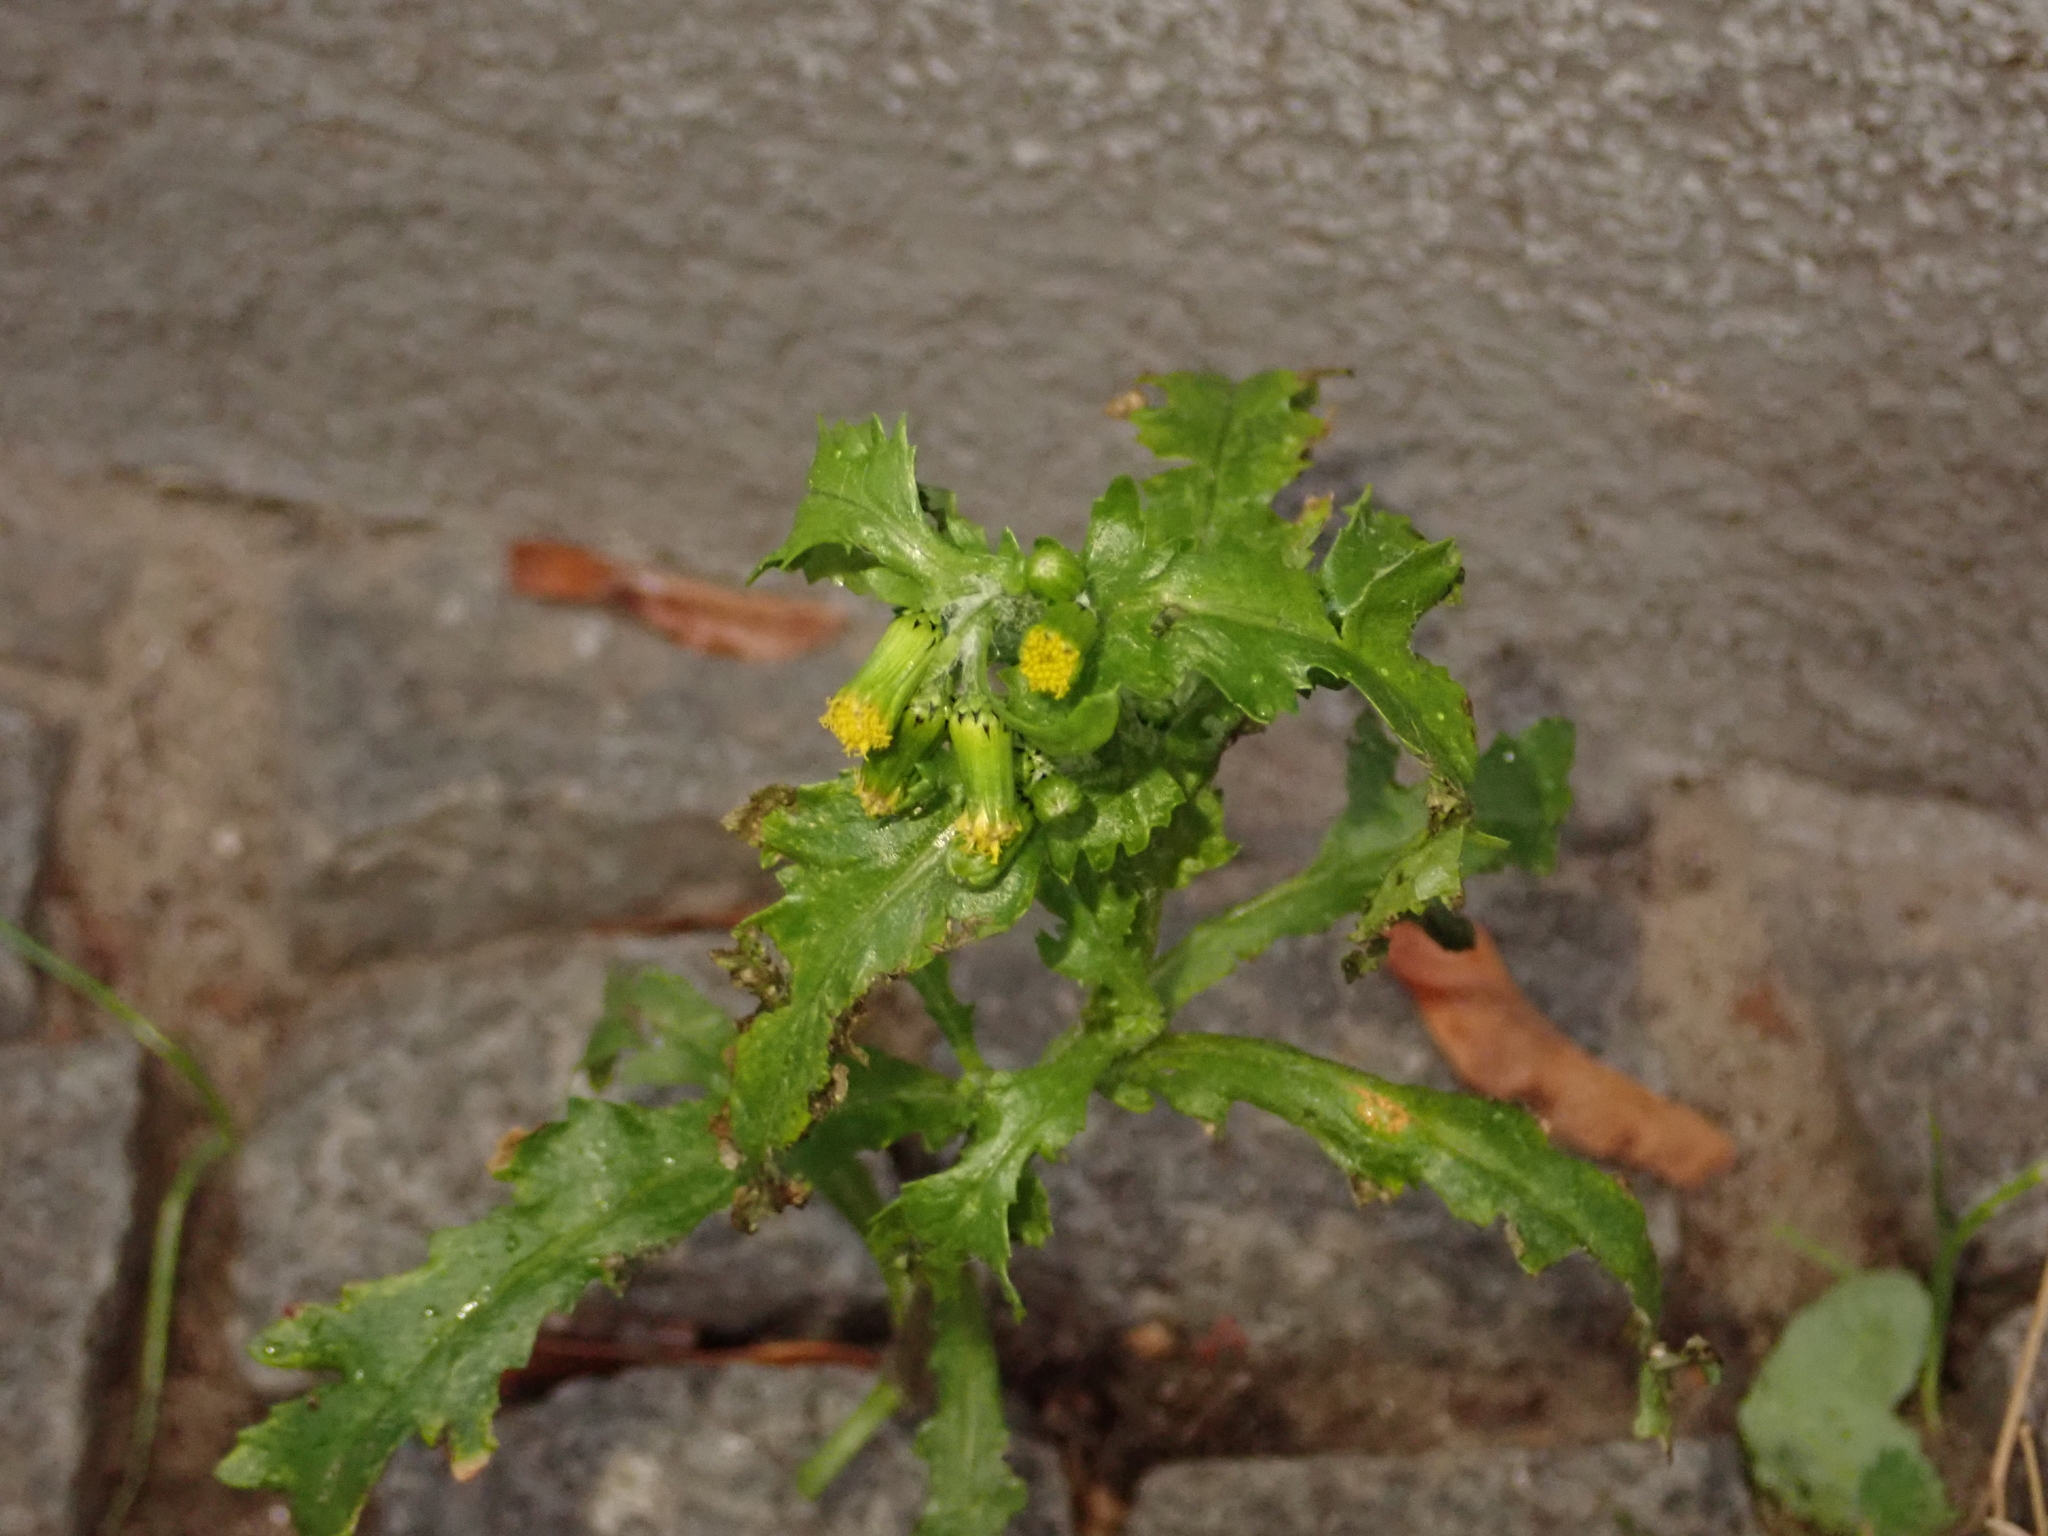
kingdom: Plantae
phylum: Tracheophyta
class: Magnoliopsida
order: Asterales
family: Asteraceae
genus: Senecio
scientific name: Senecio vulgaris
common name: Old-man-in-the-spring
